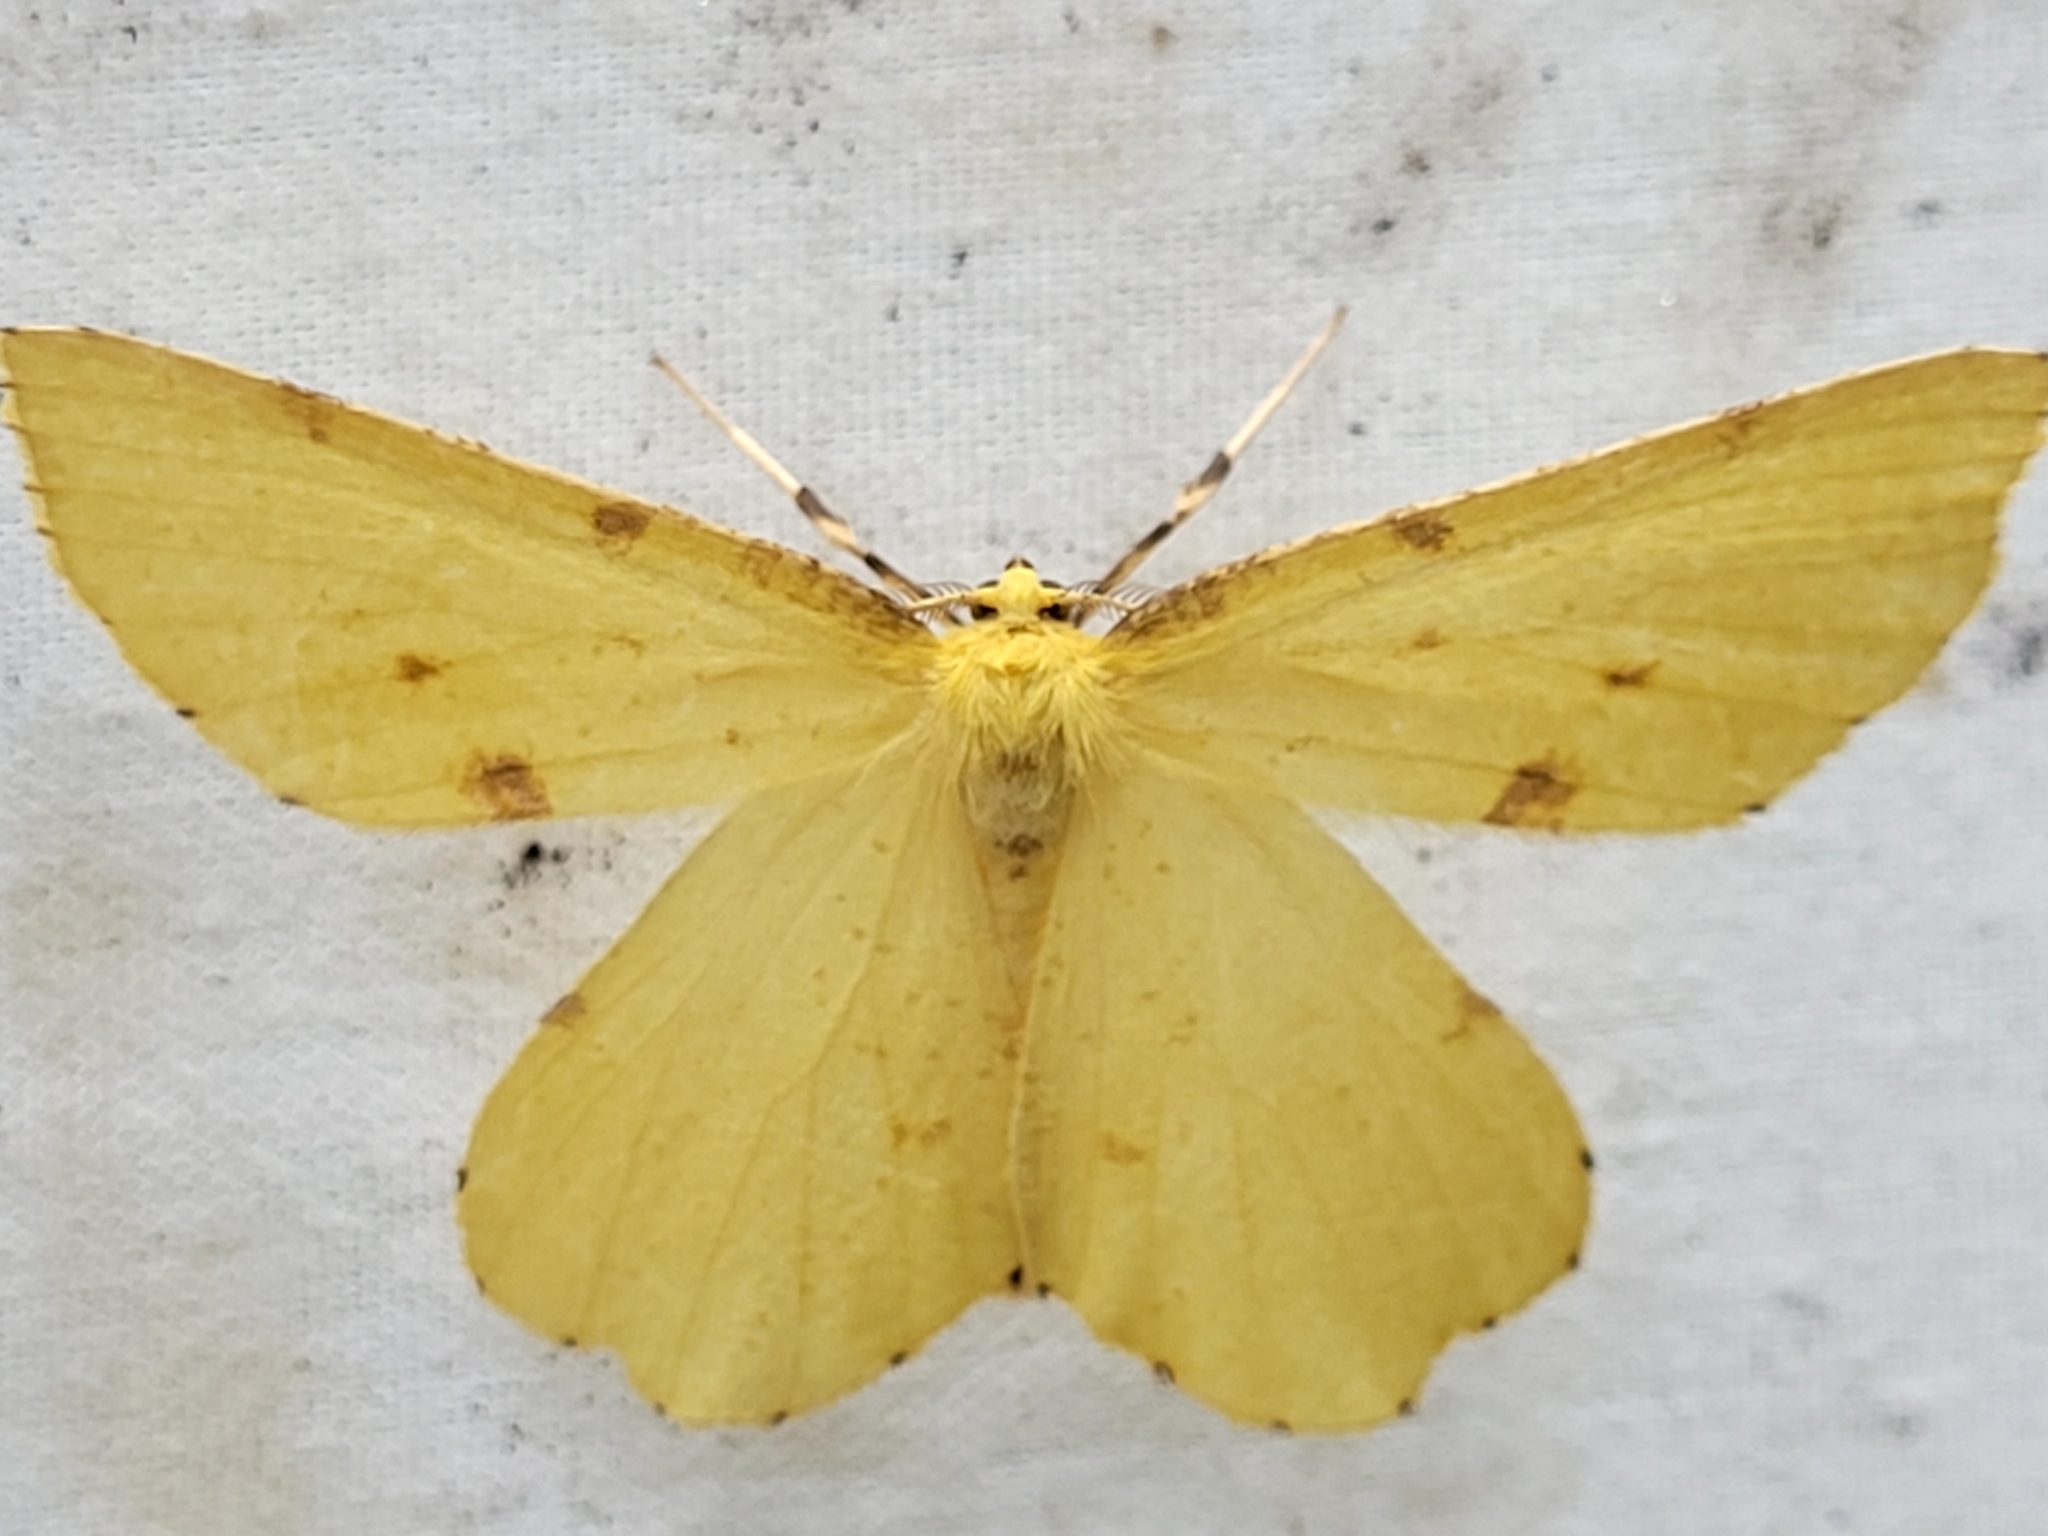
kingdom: Animalia
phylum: Arthropoda
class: Insecta
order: Lepidoptera
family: Geometridae
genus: Xanthotype
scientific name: Xanthotype
